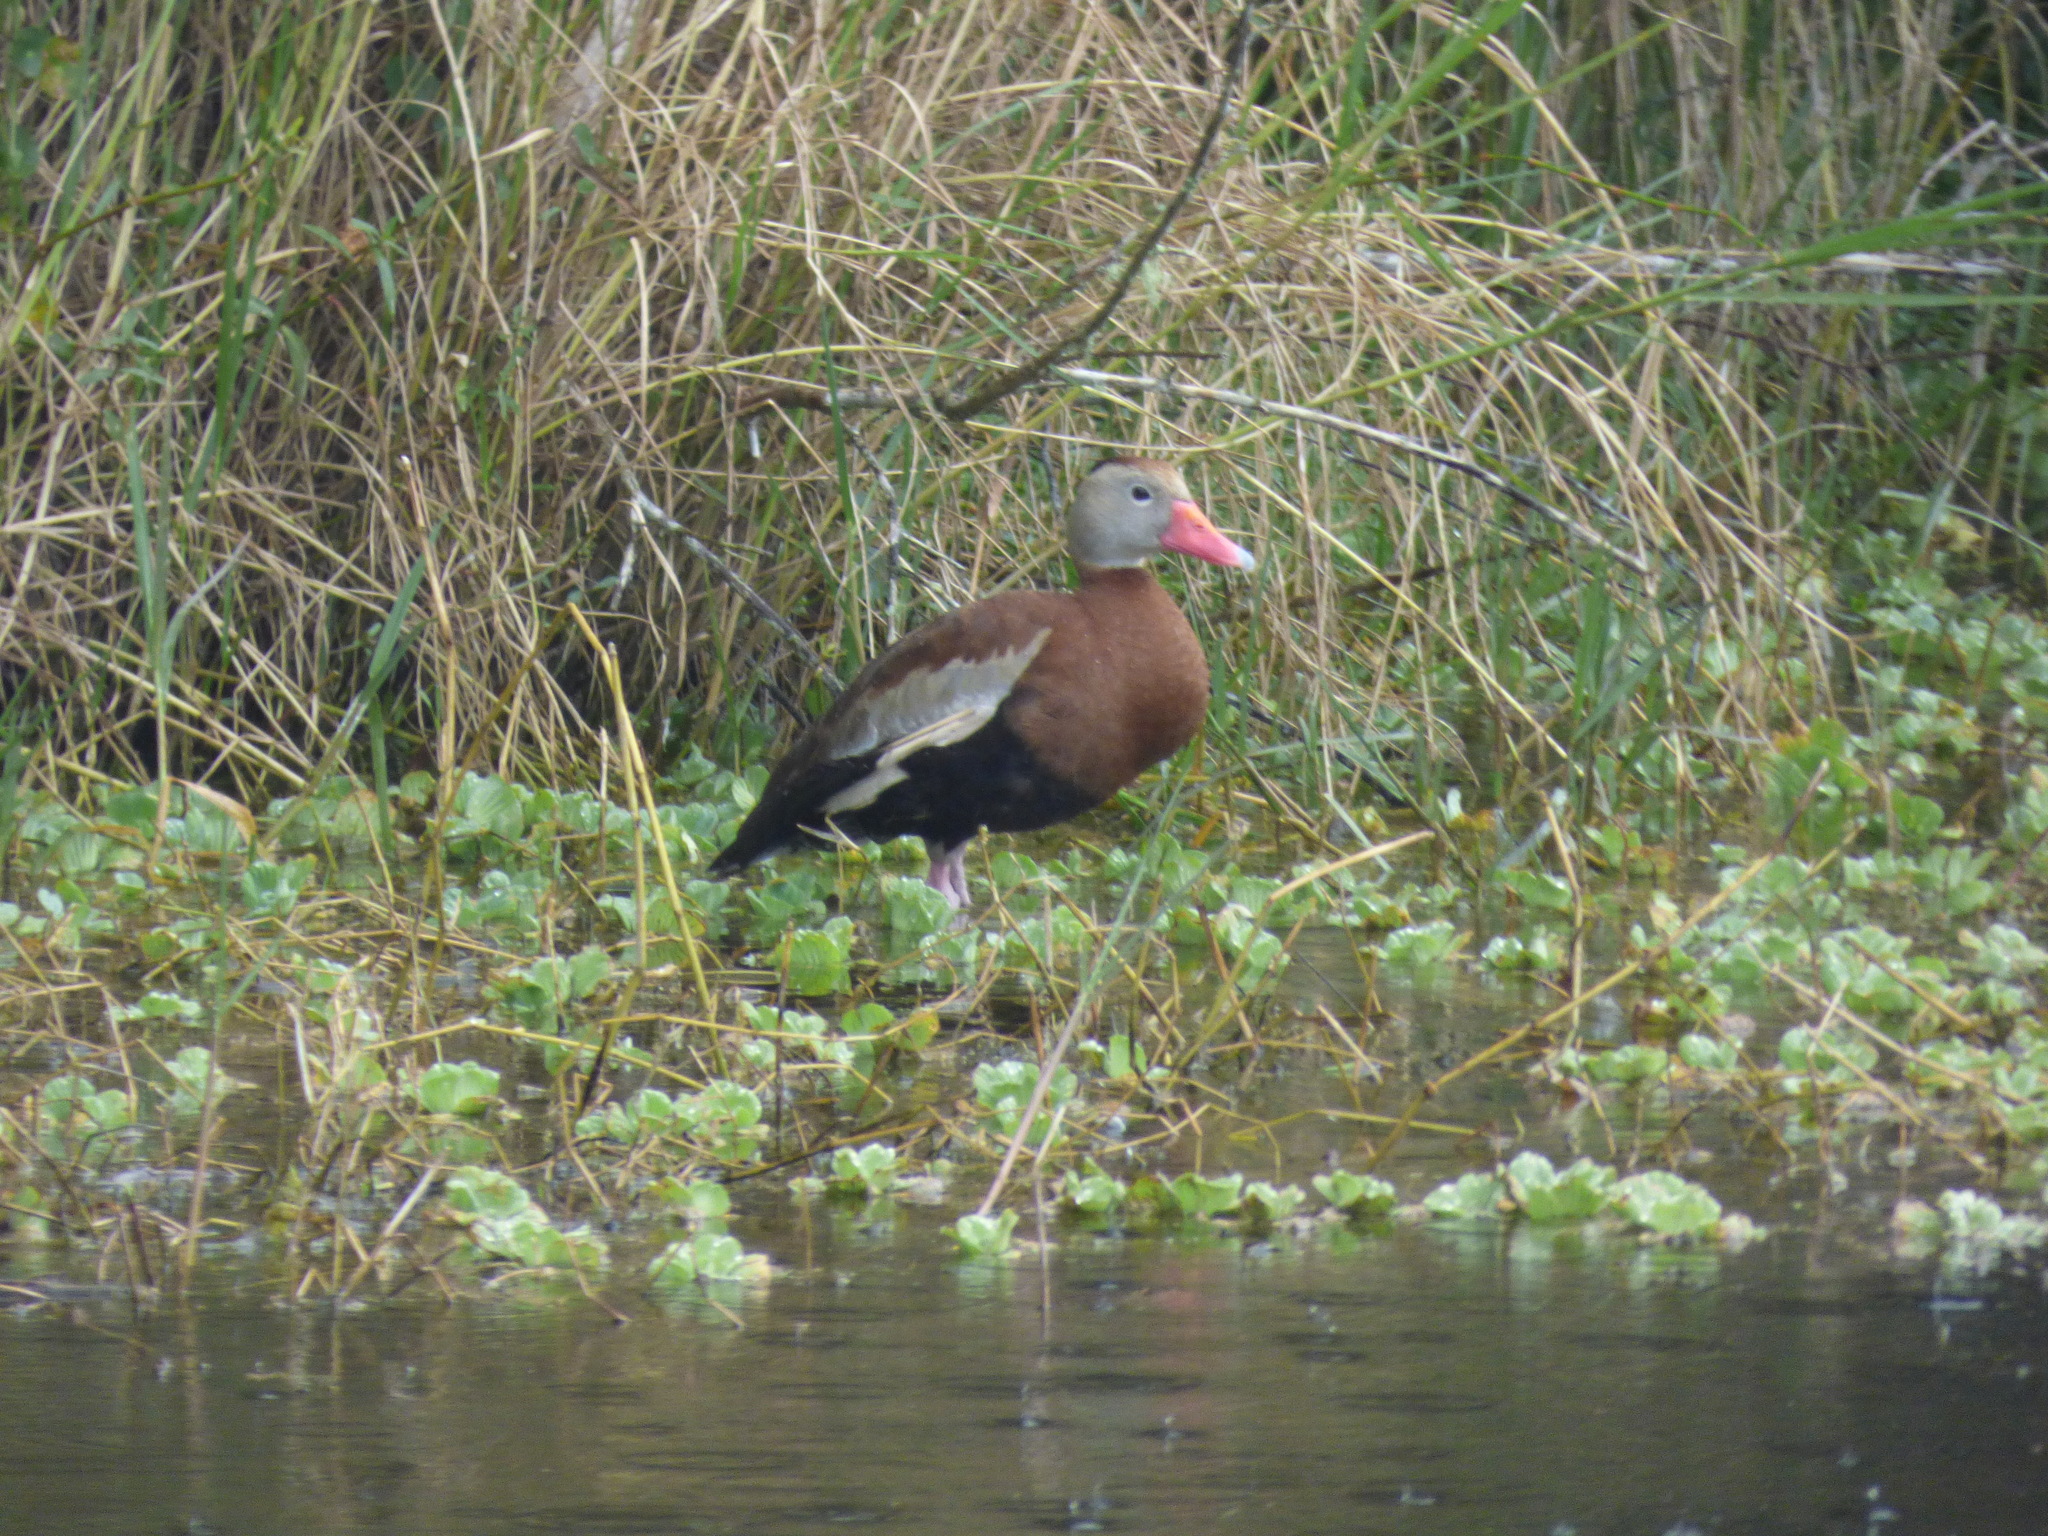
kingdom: Animalia
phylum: Chordata
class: Aves
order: Anseriformes
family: Anatidae
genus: Dendrocygna
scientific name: Dendrocygna autumnalis
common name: Black-bellied whistling duck
